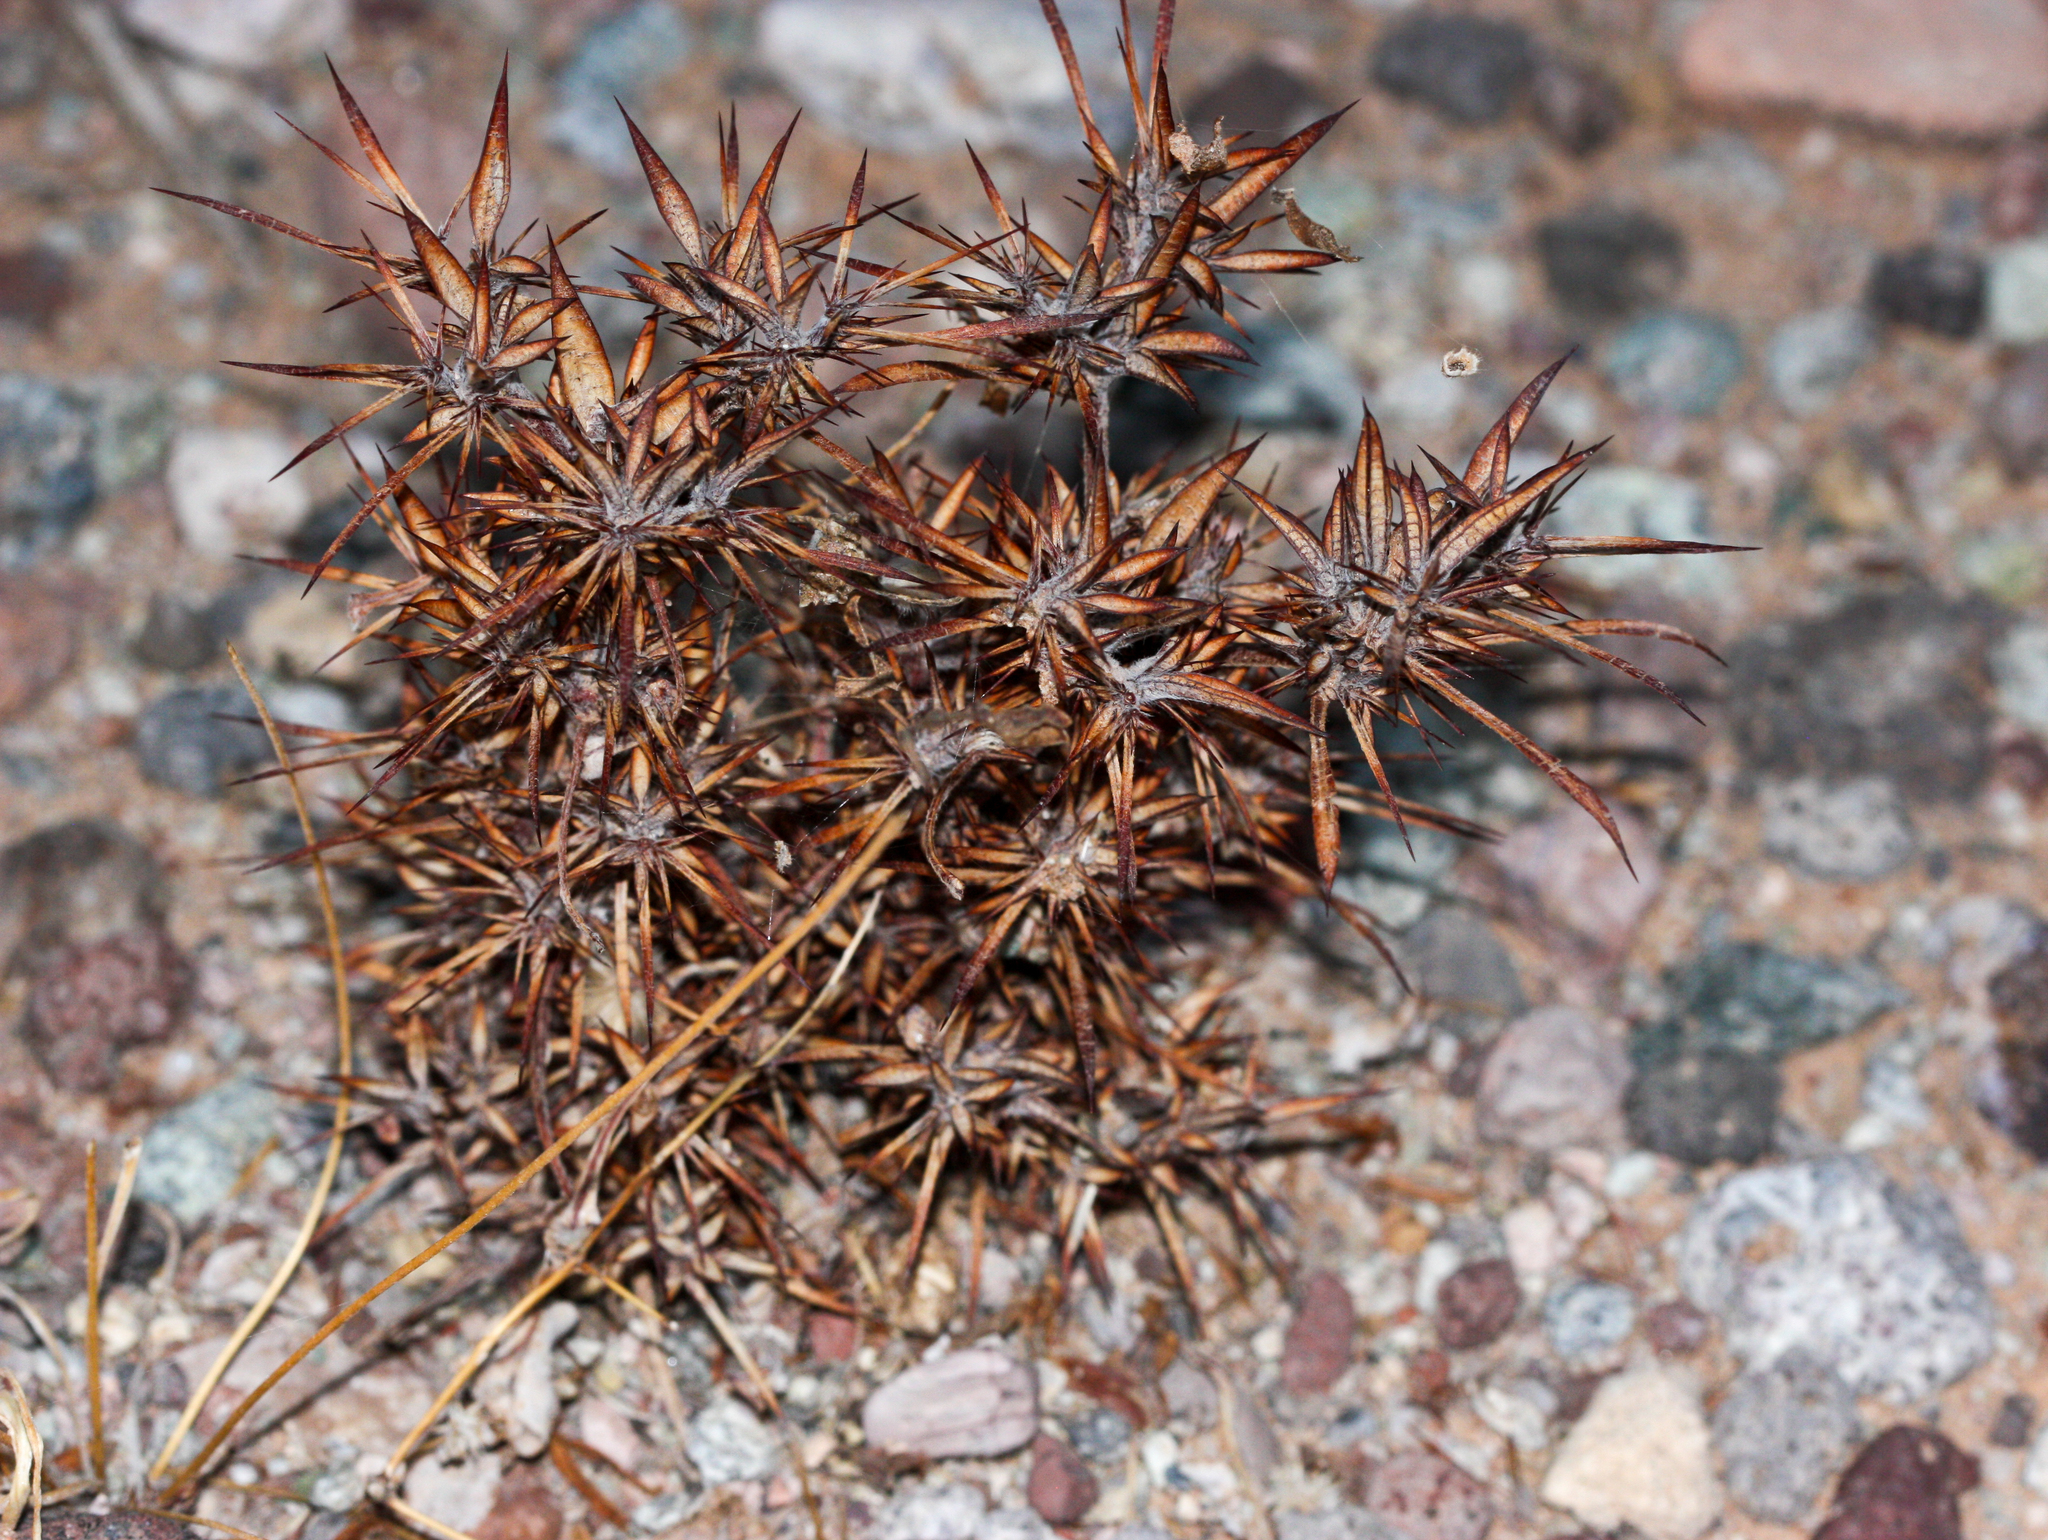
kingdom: Plantae
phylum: Tracheophyta
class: Magnoliopsida
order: Caryophyllales
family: Polygonaceae
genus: Chorizanthe
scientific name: Chorizanthe rigida
